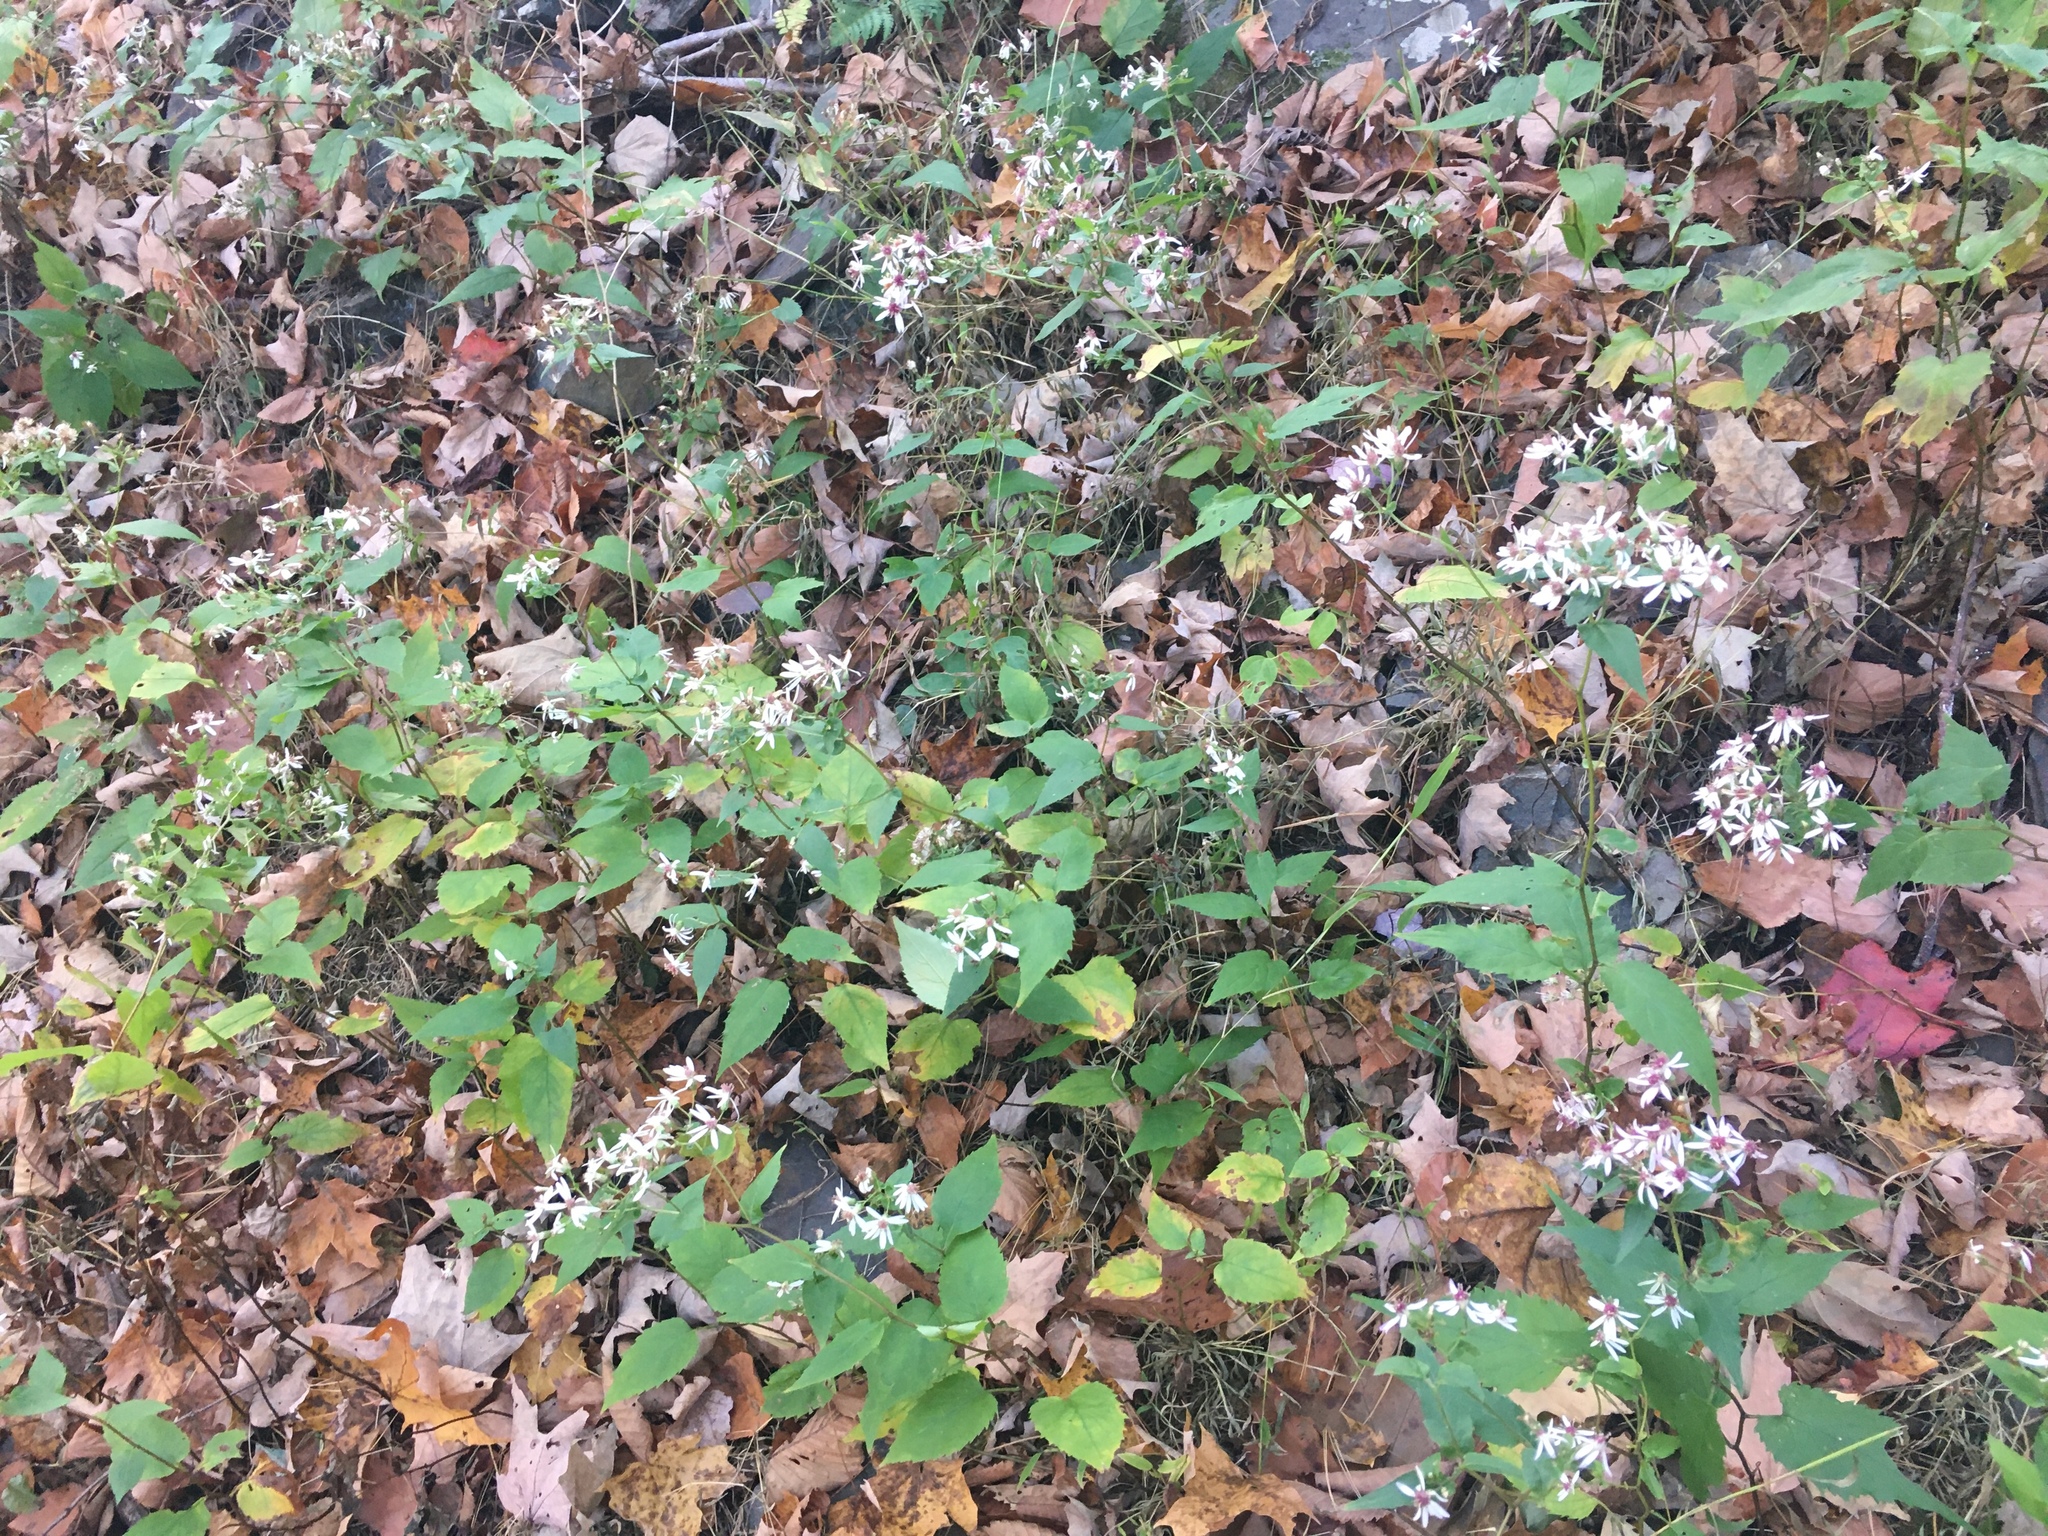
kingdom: Plantae
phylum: Tracheophyta
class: Magnoliopsida
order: Asterales
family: Asteraceae
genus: Eurybia
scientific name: Eurybia divaricata
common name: White wood aster
